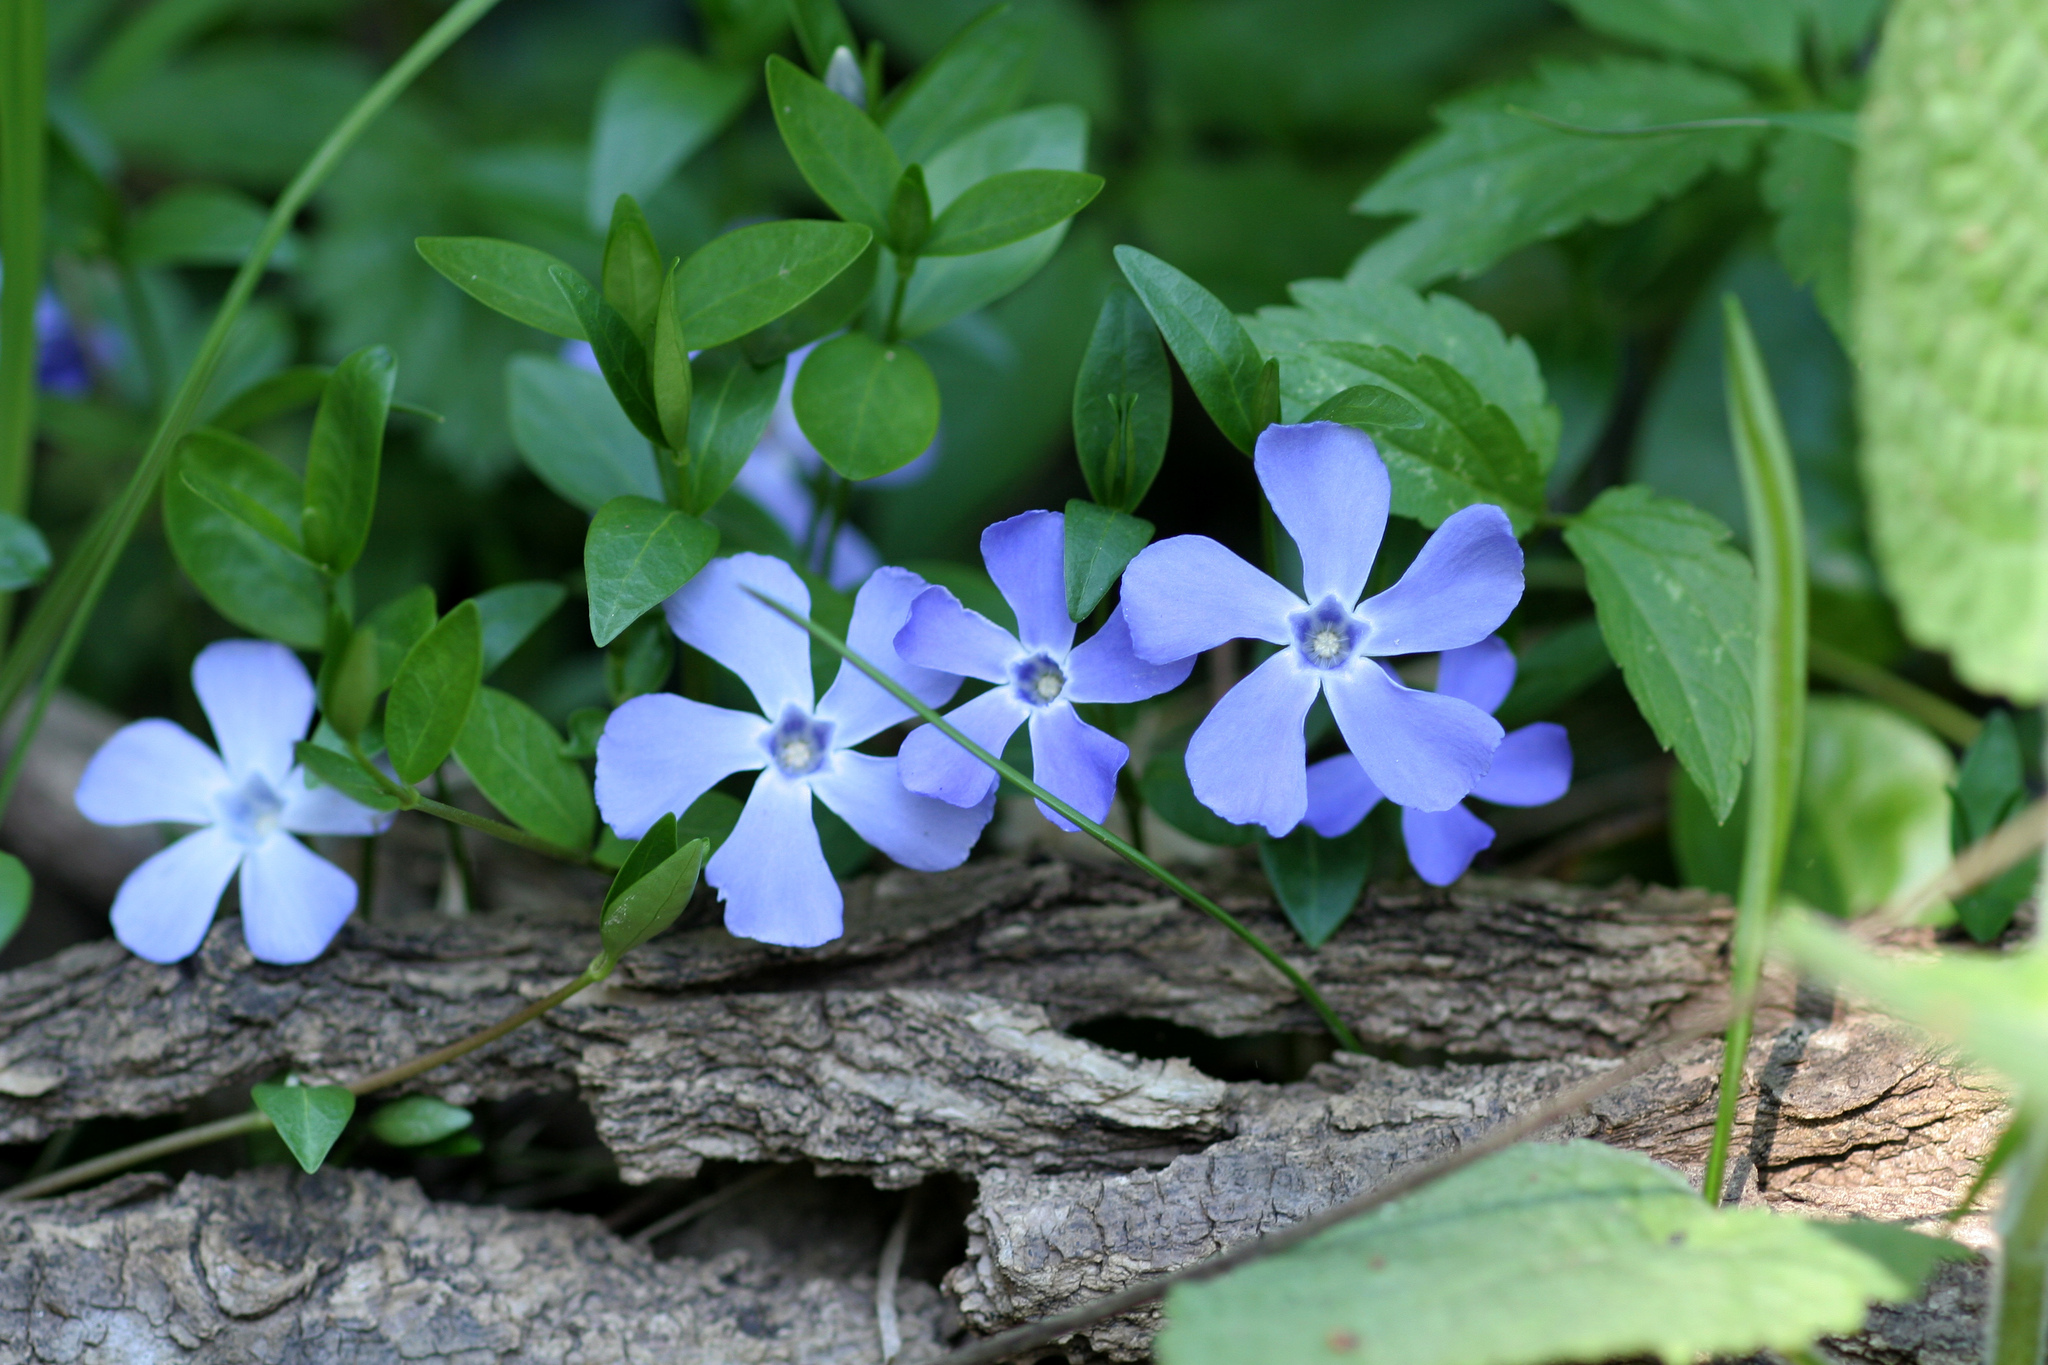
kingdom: Plantae
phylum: Tracheophyta
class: Magnoliopsida
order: Gentianales
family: Apocynaceae
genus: Vinca
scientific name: Vinca minor
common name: Lesser periwinkle
